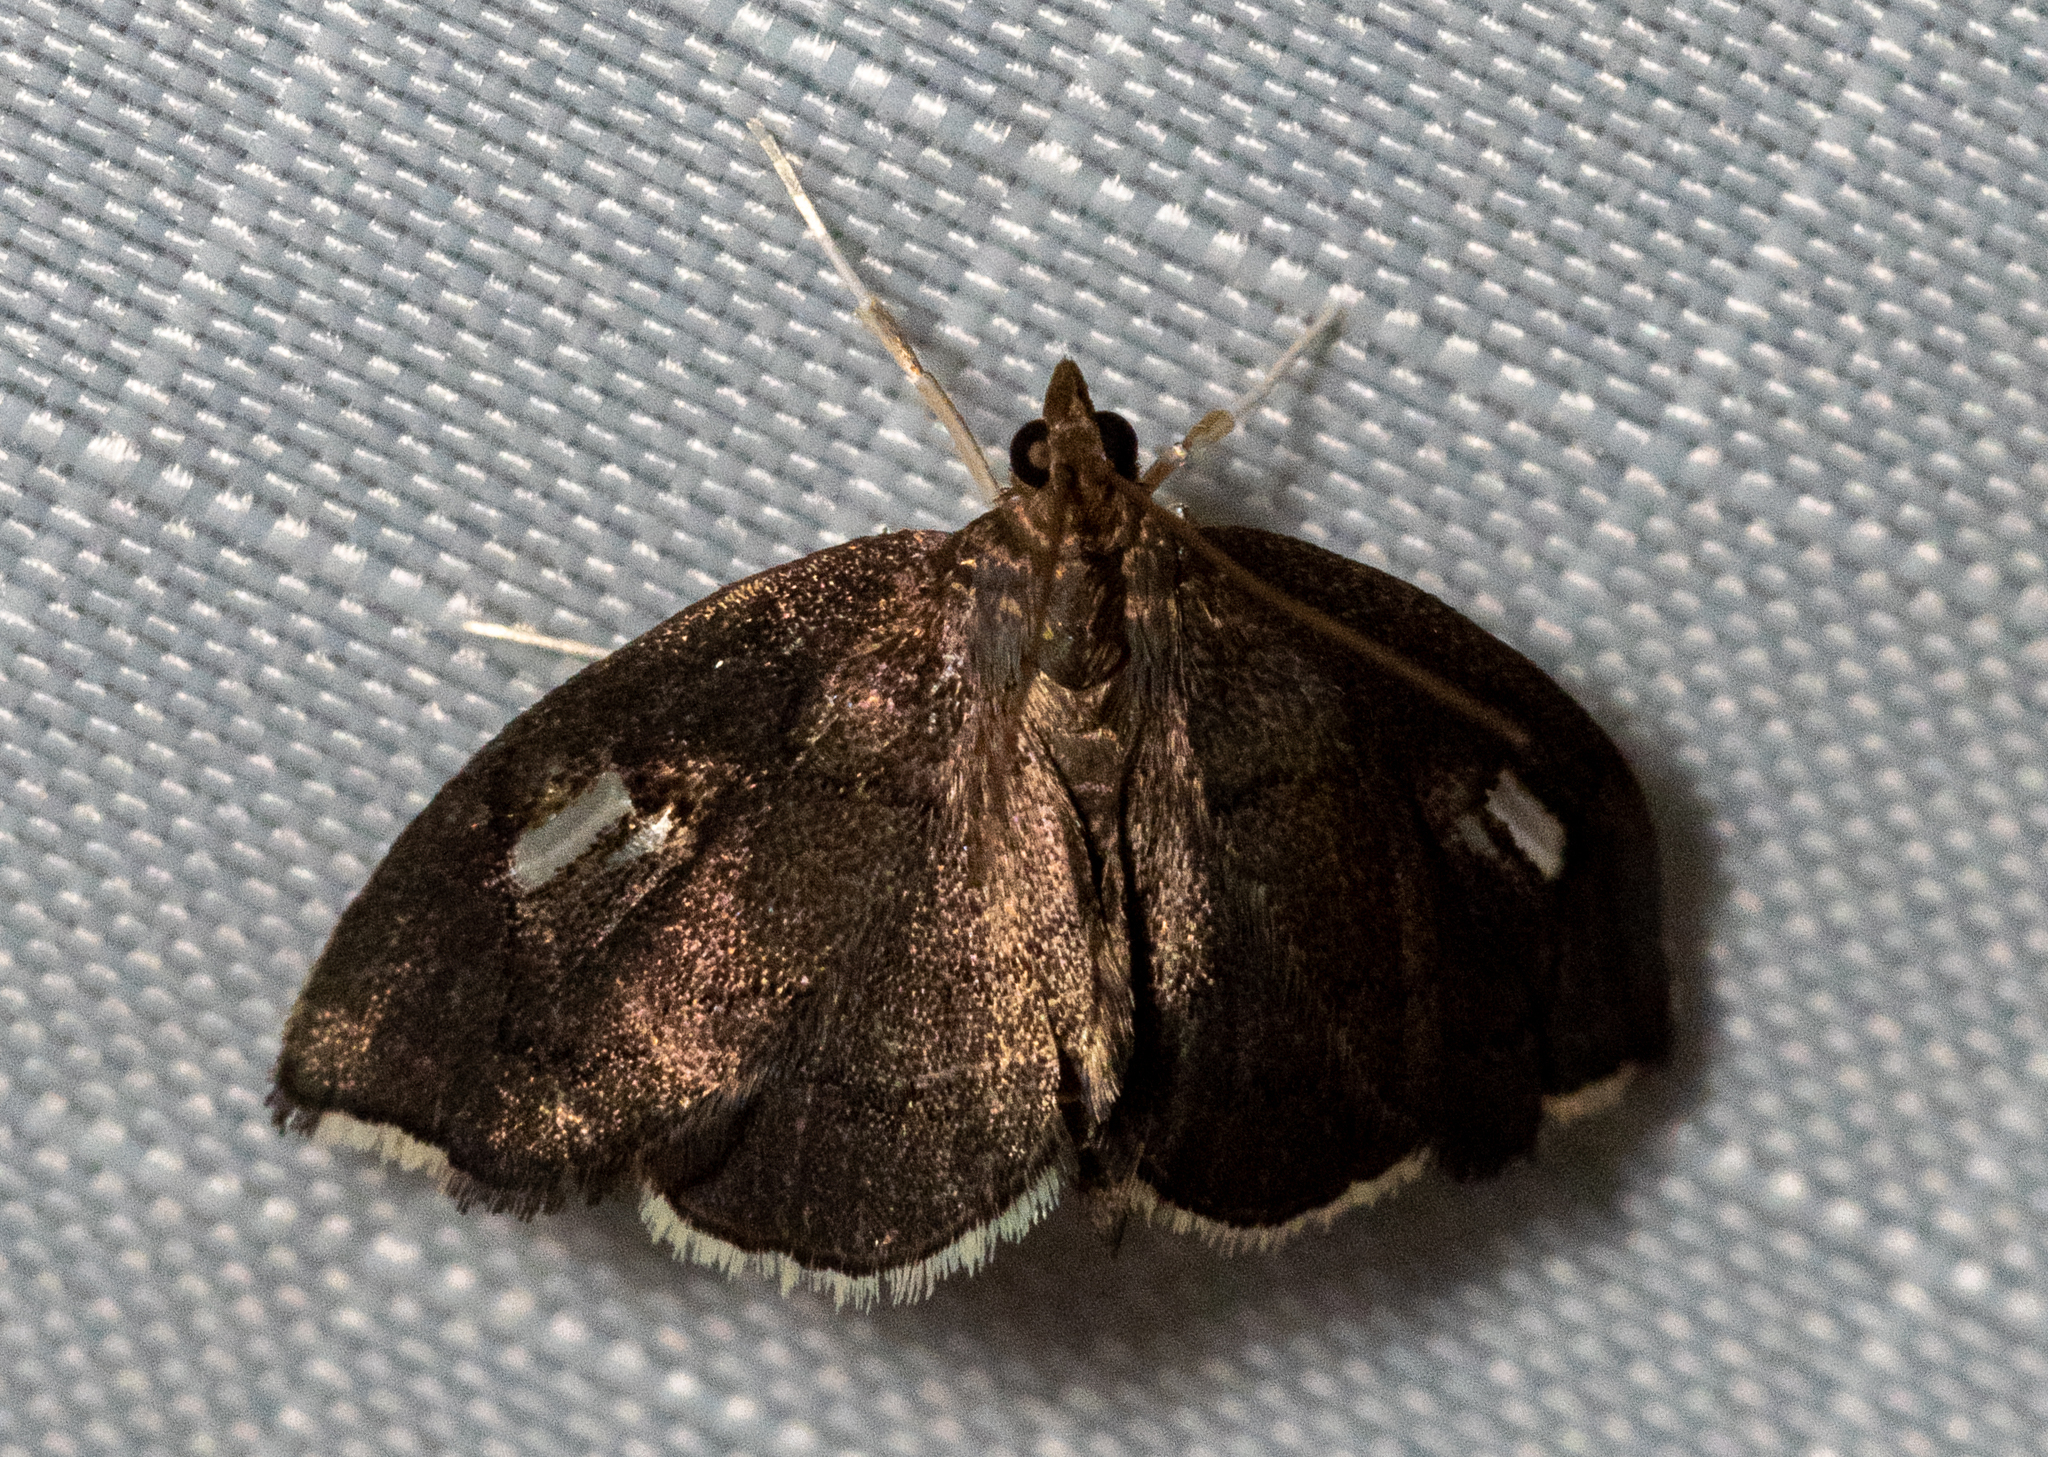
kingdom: Animalia
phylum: Arthropoda
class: Insecta
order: Lepidoptera
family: Crambidae
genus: Perispasta
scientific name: Perispasta caeculalis
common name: Titian peale's moth
